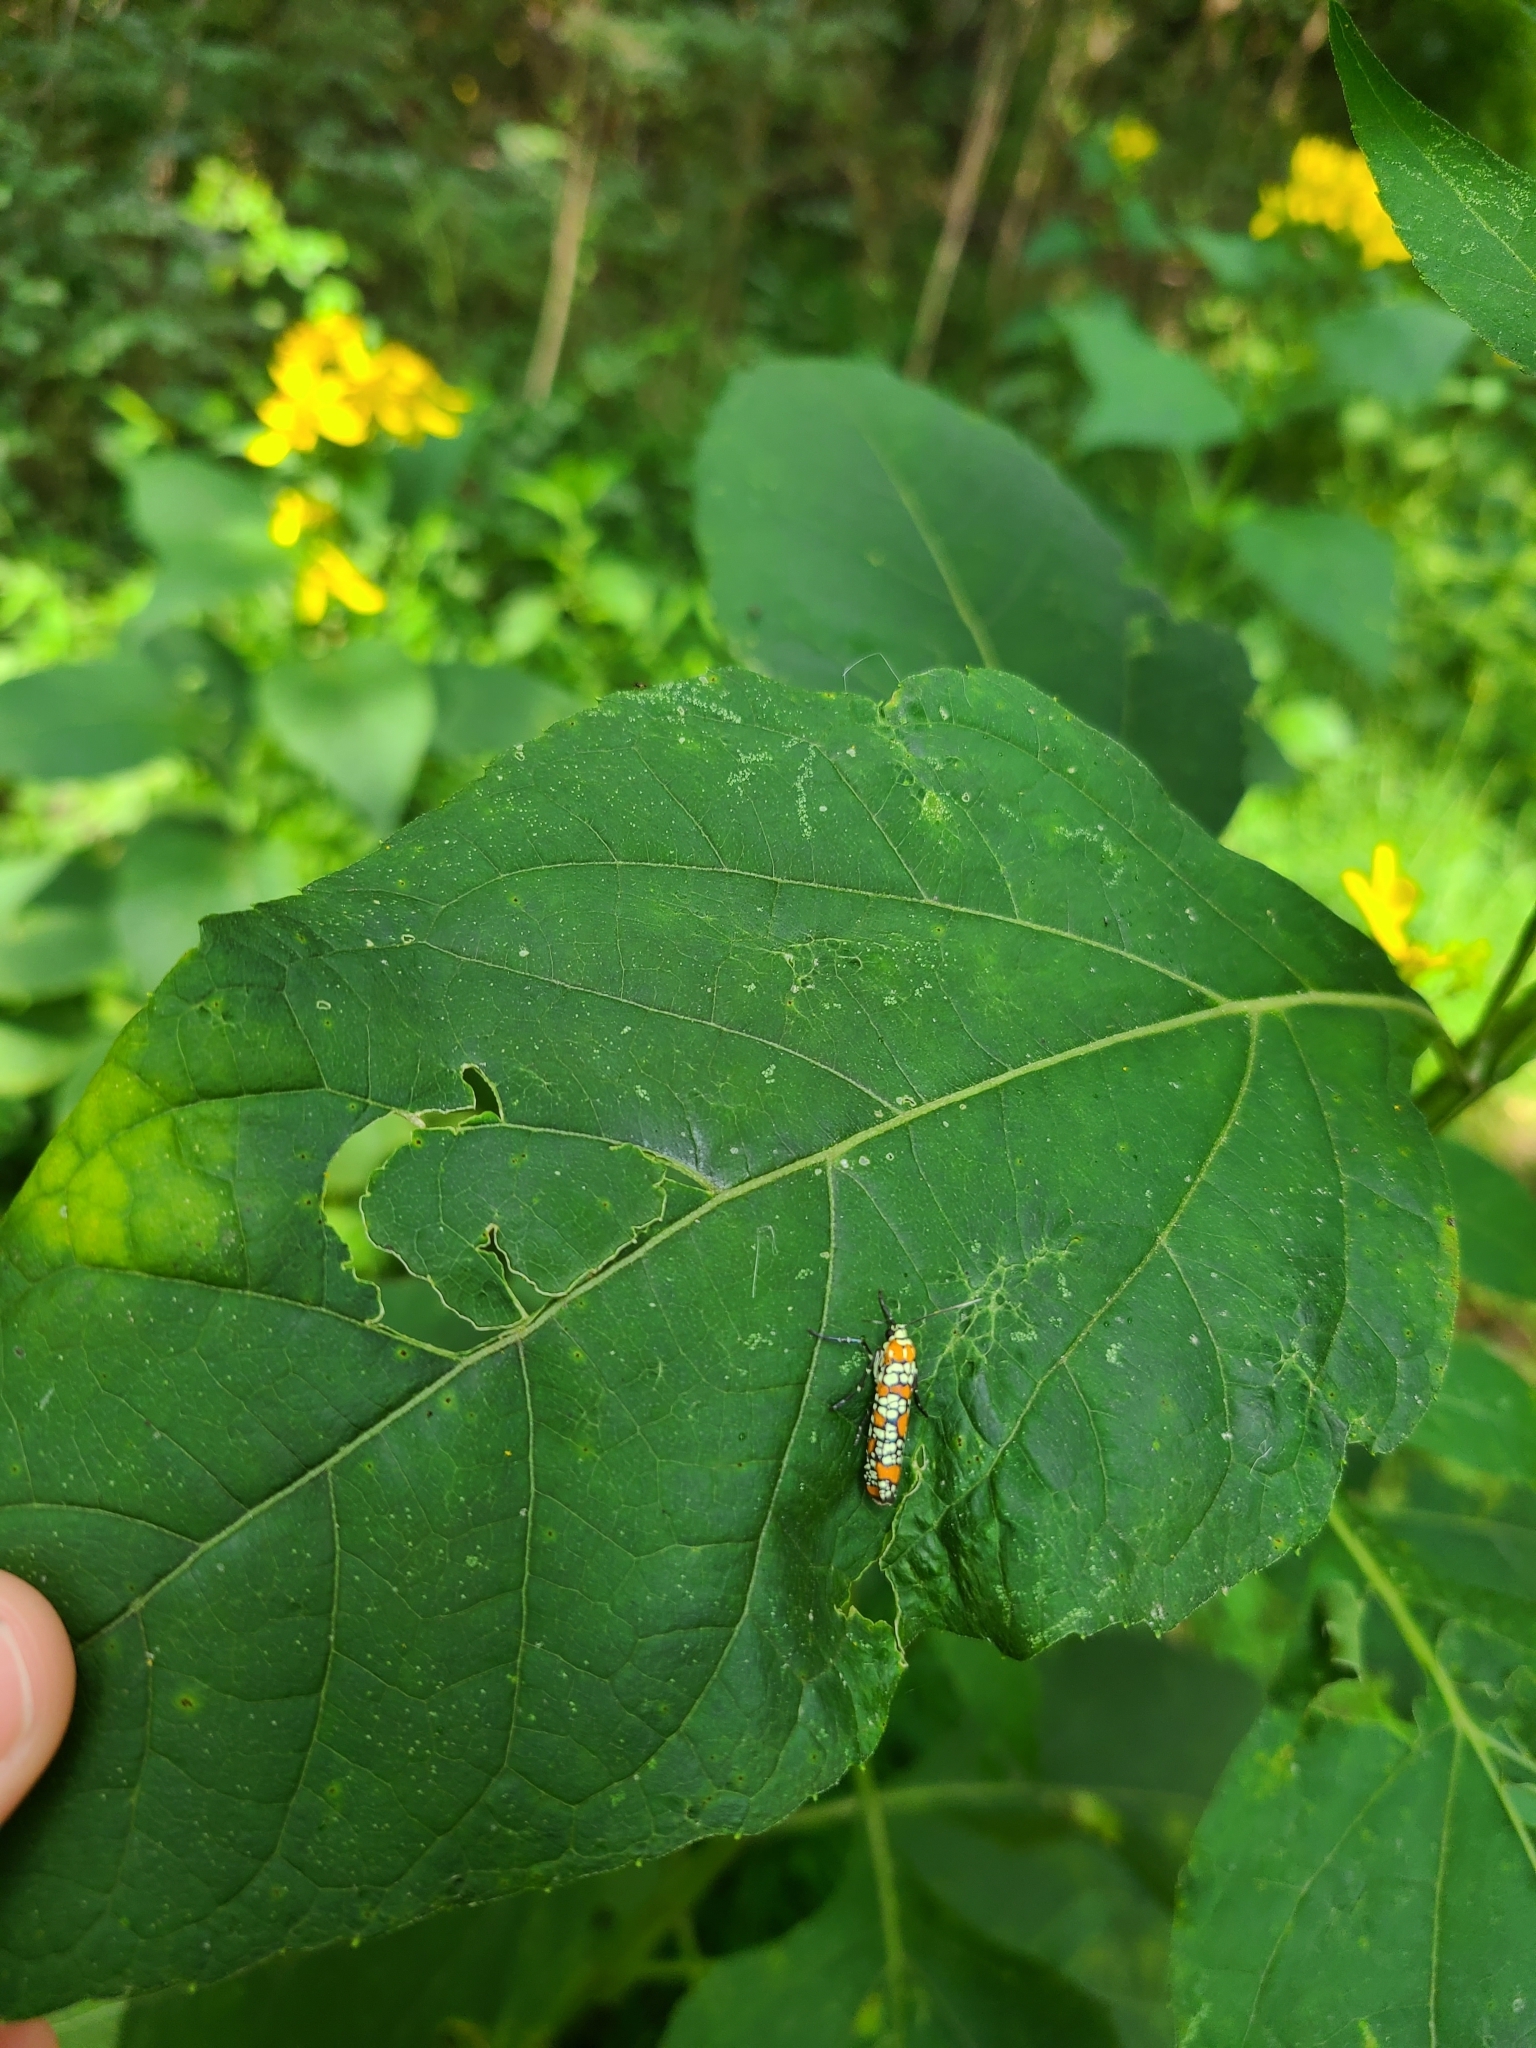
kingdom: Animalia
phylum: Arthropoda
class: Insecta
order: Lepidoptera
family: Attevidae
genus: Atteva
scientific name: Atteva punctella
